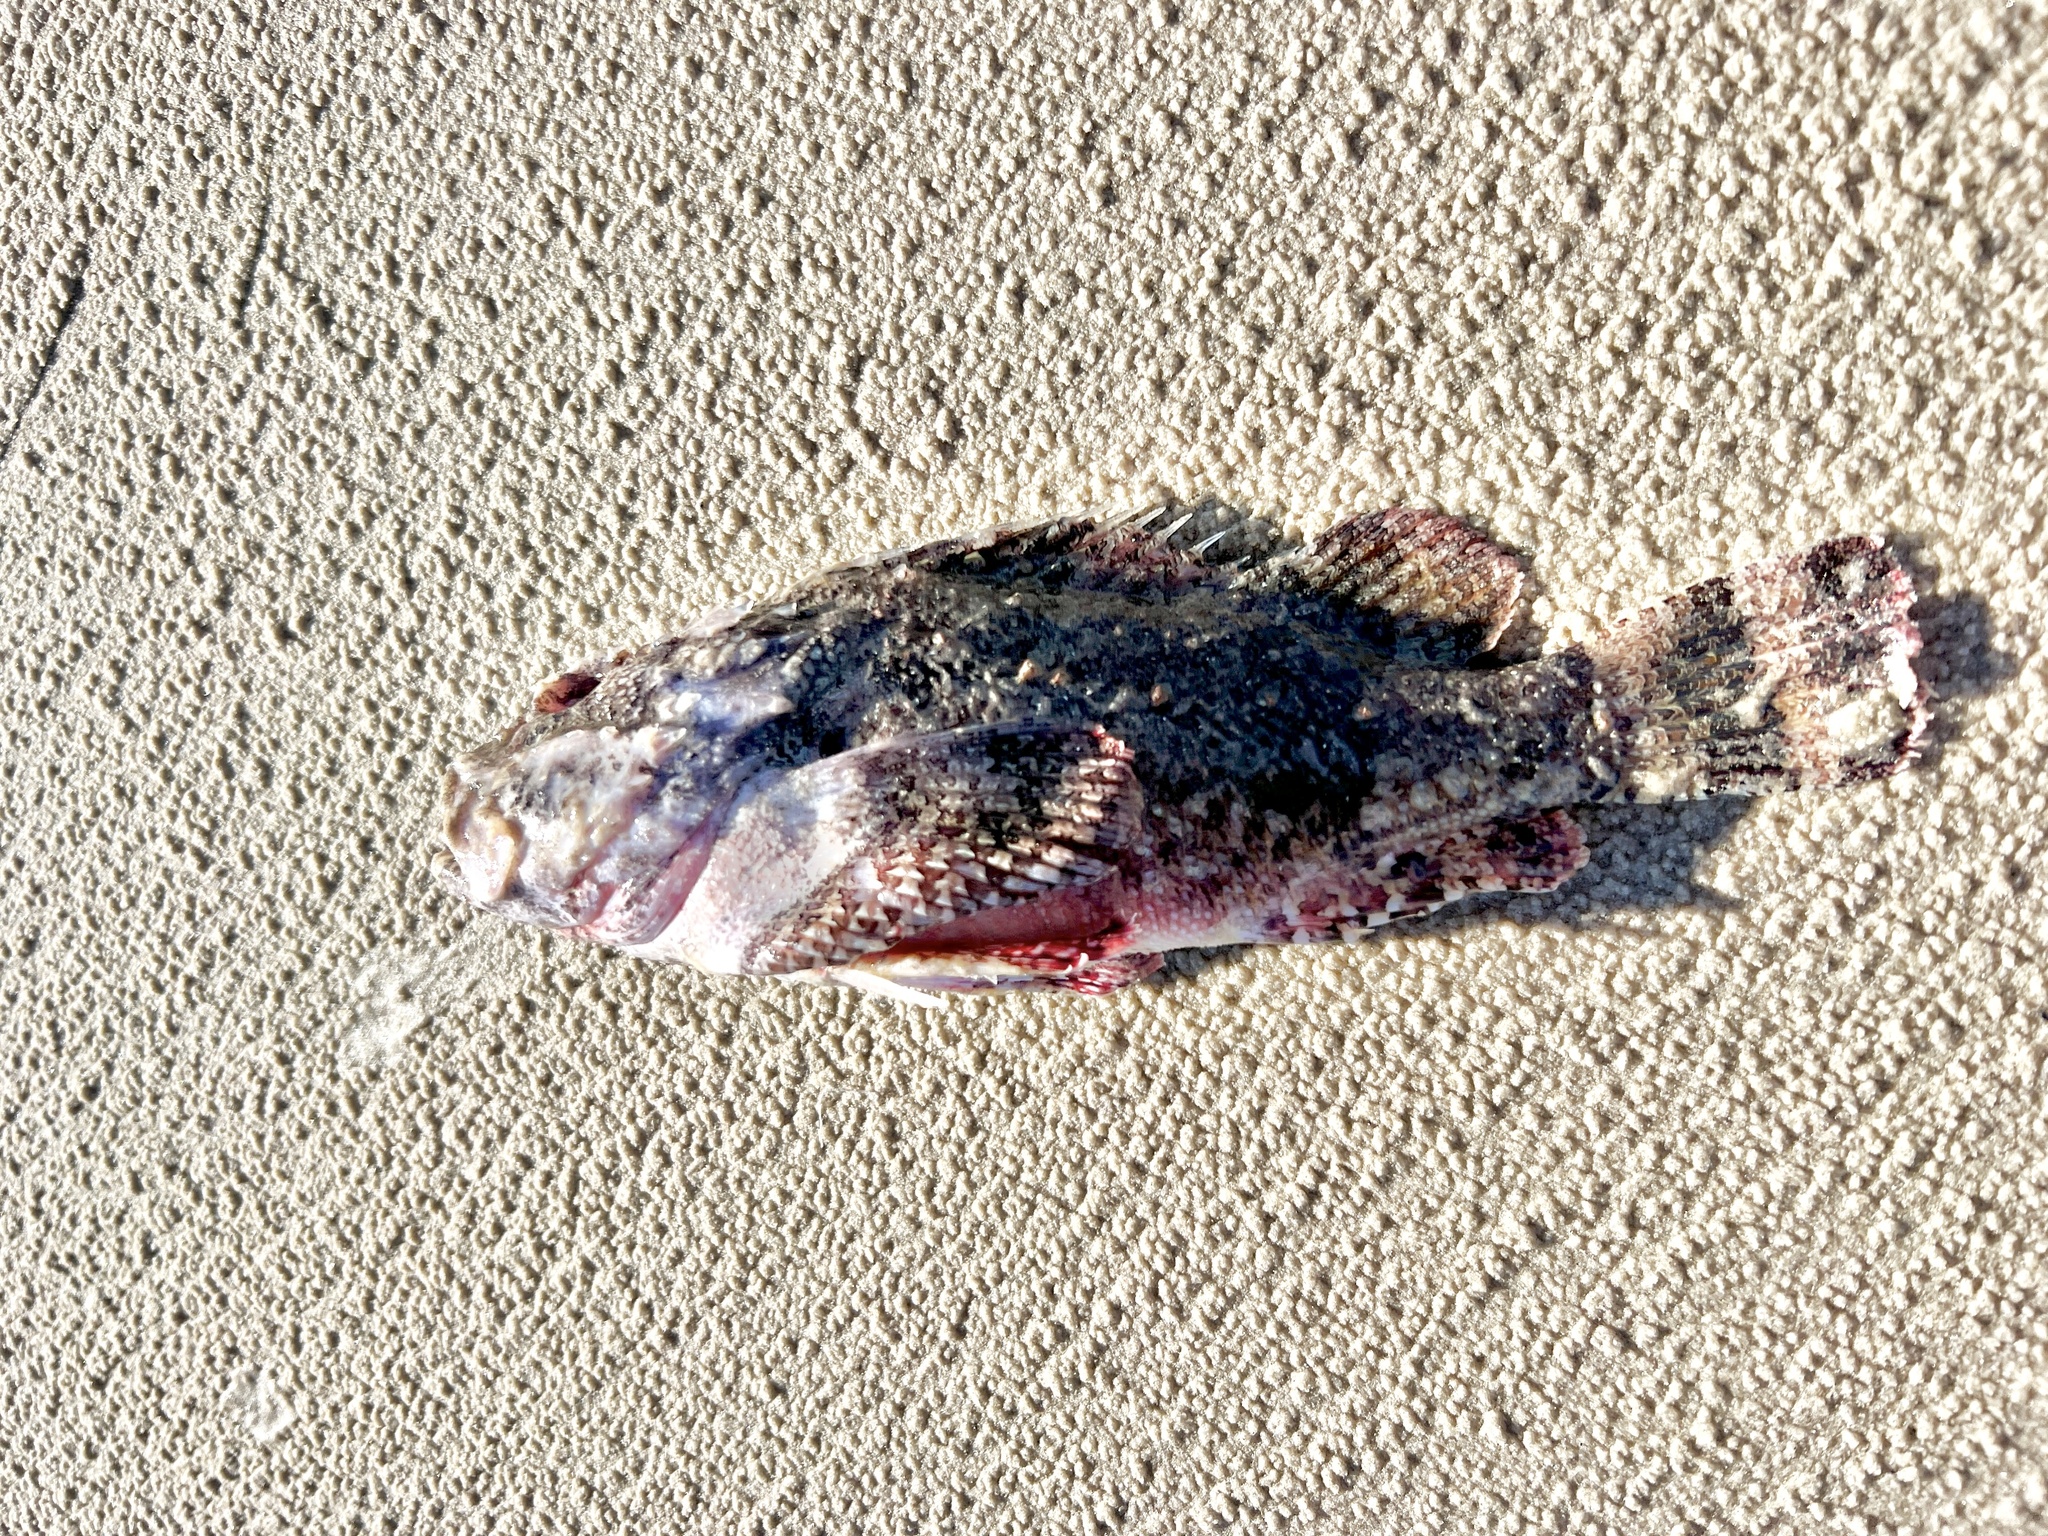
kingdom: Animalia
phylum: Chordata
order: Scorpaeniformes
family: Scorpaenidae
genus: Scorpaena
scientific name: Scorpaena plumieri
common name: Spotted scorpionfish
